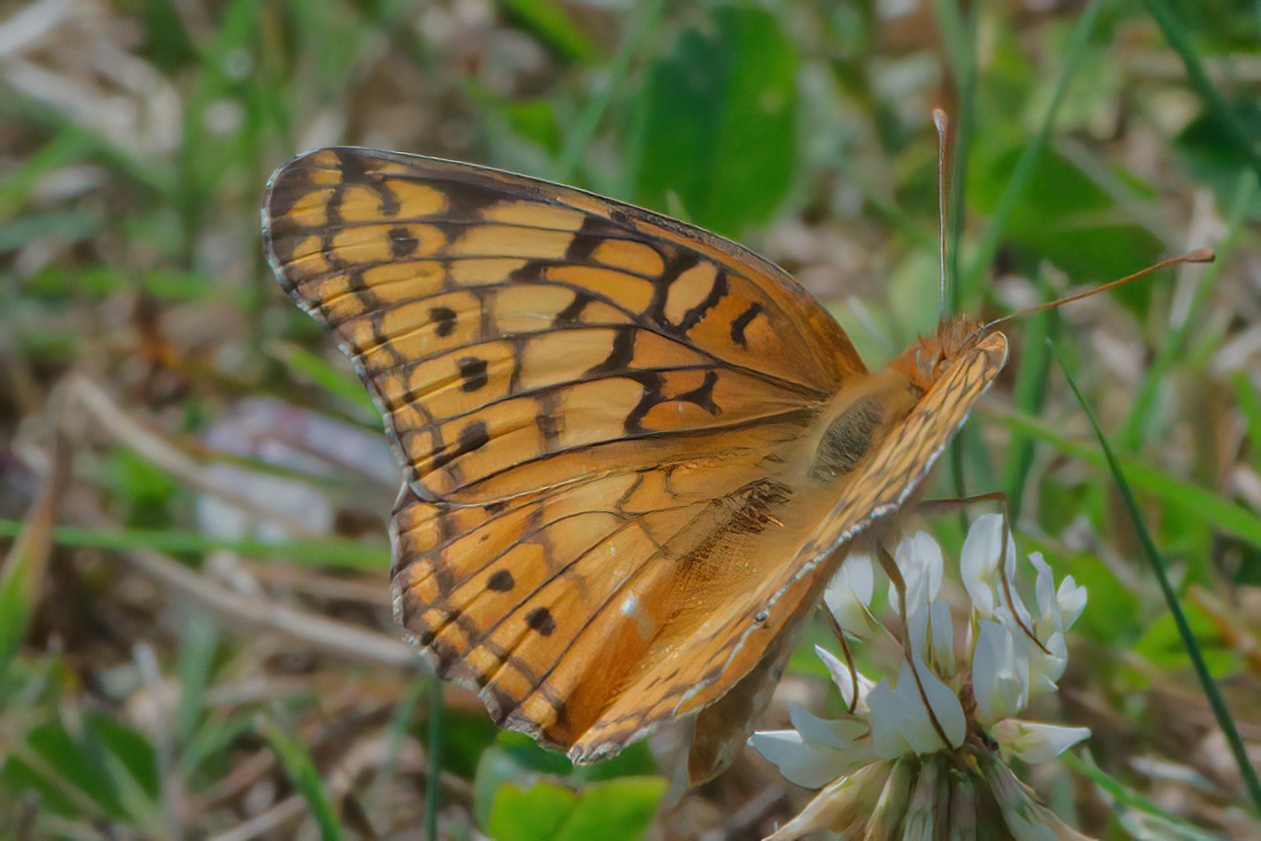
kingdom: Animalia
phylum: Arthropoda
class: Insecta
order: Lepidoptera
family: Nymphalidae
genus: Euptoieta
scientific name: Euptoieta claudia
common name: Variegated fritillary
